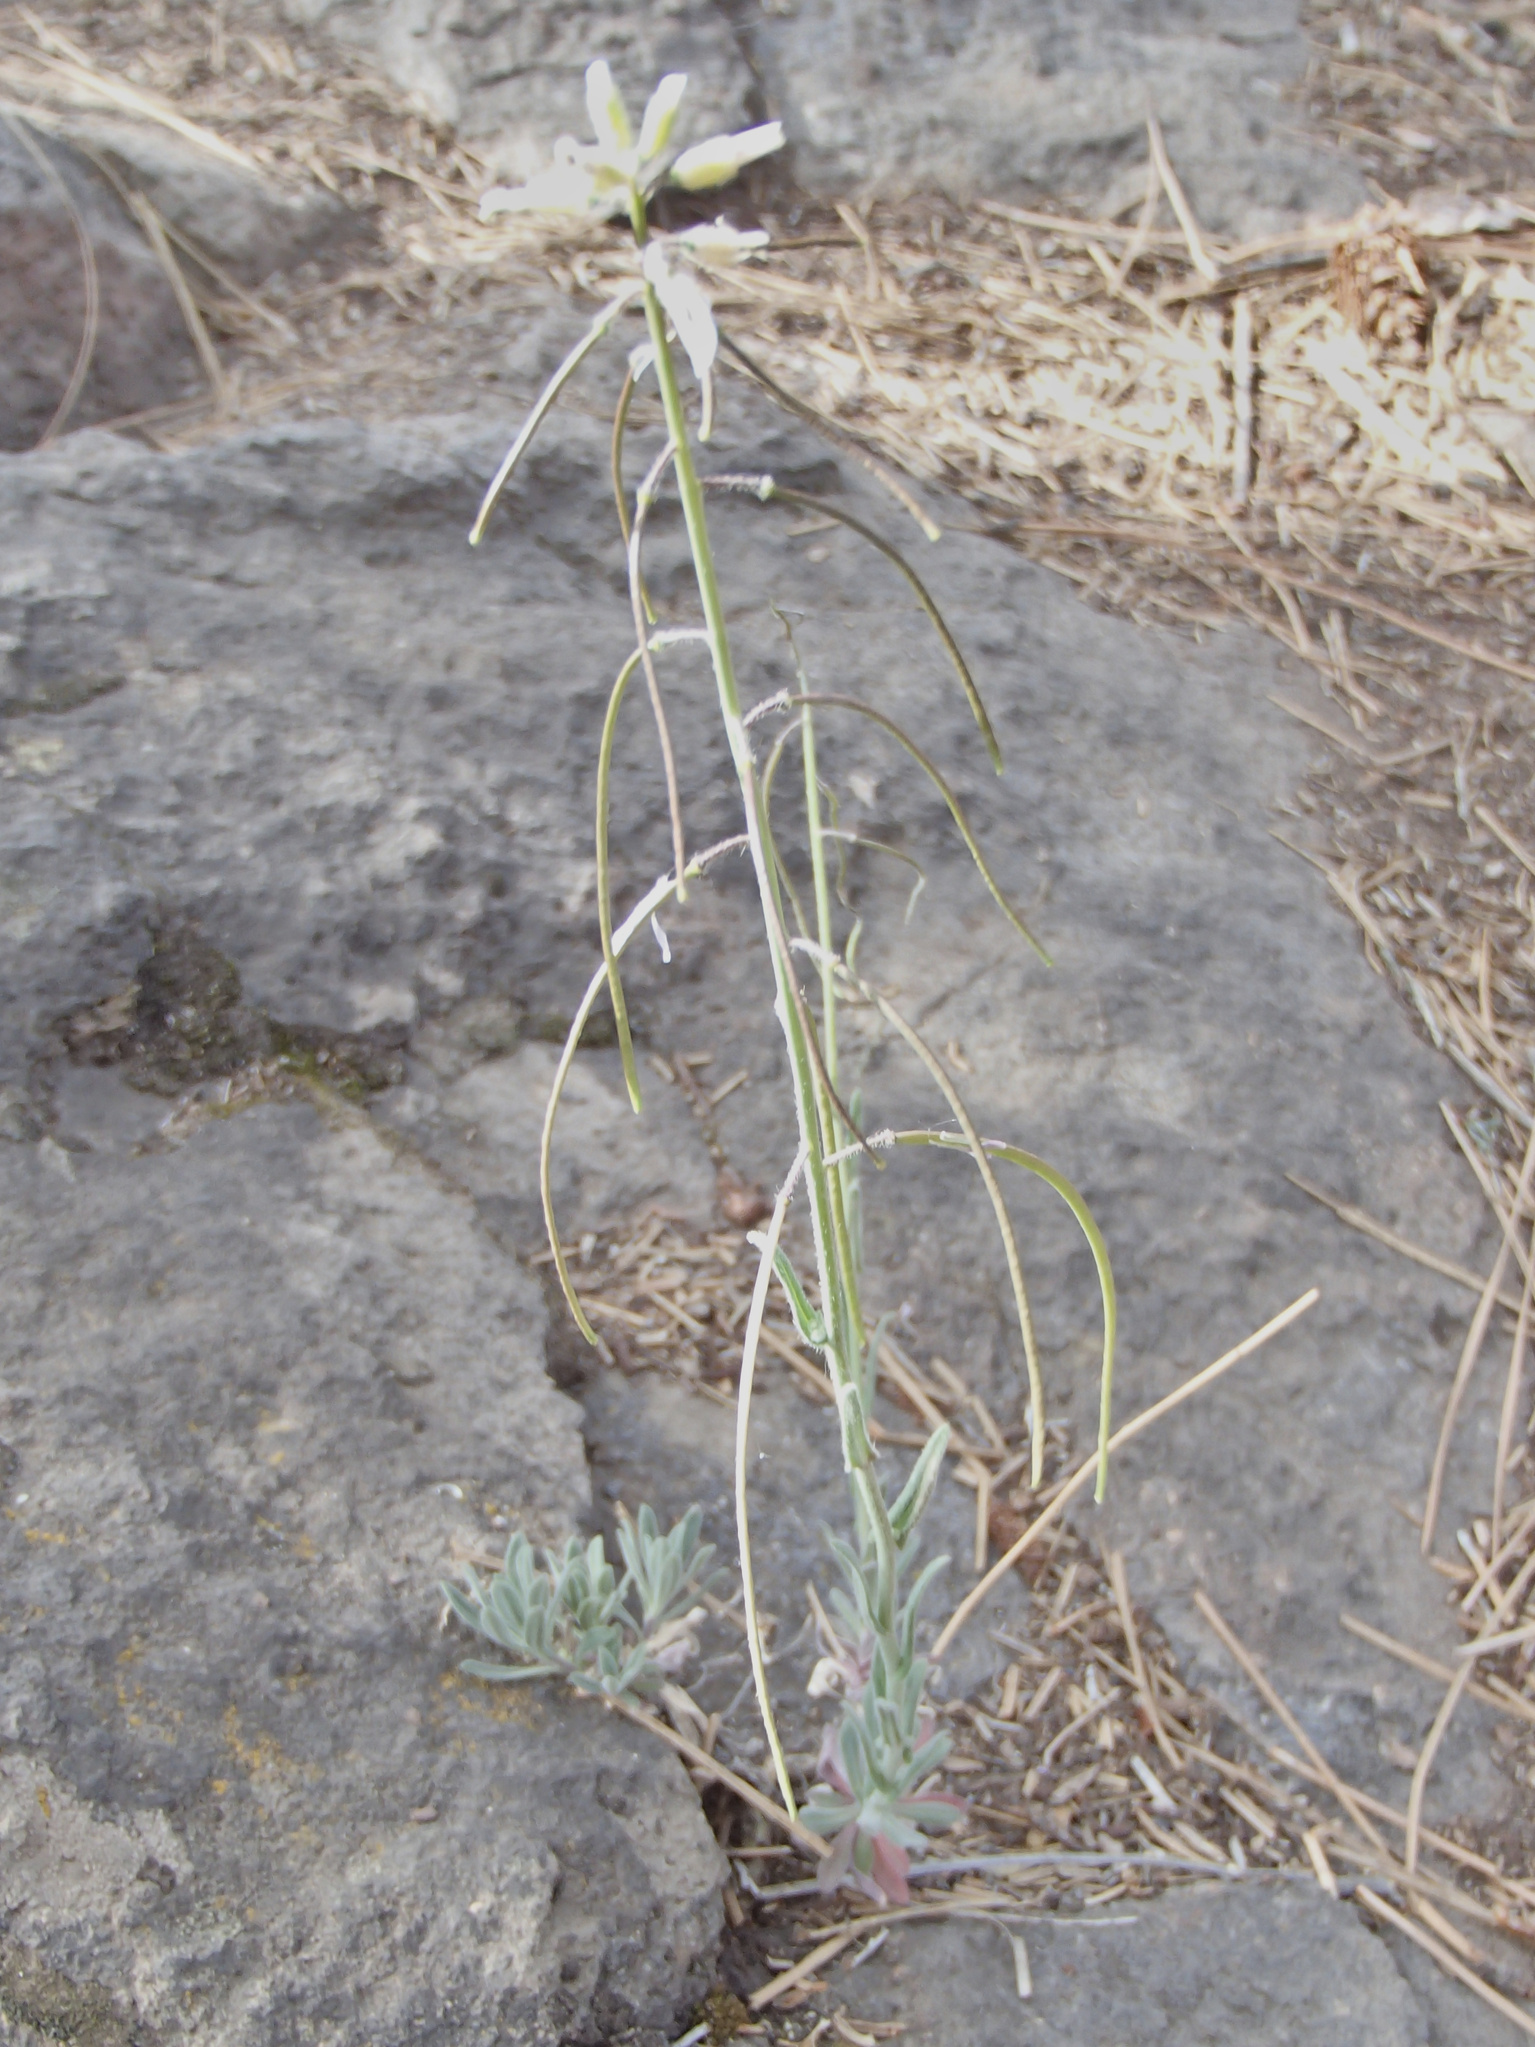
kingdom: Plantae
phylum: Tracheophyta
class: Magnoliopsida
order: Brassicales
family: Brassicaceae
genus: Boechera
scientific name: Boechera sparsiflora
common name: Elegant rockcress
